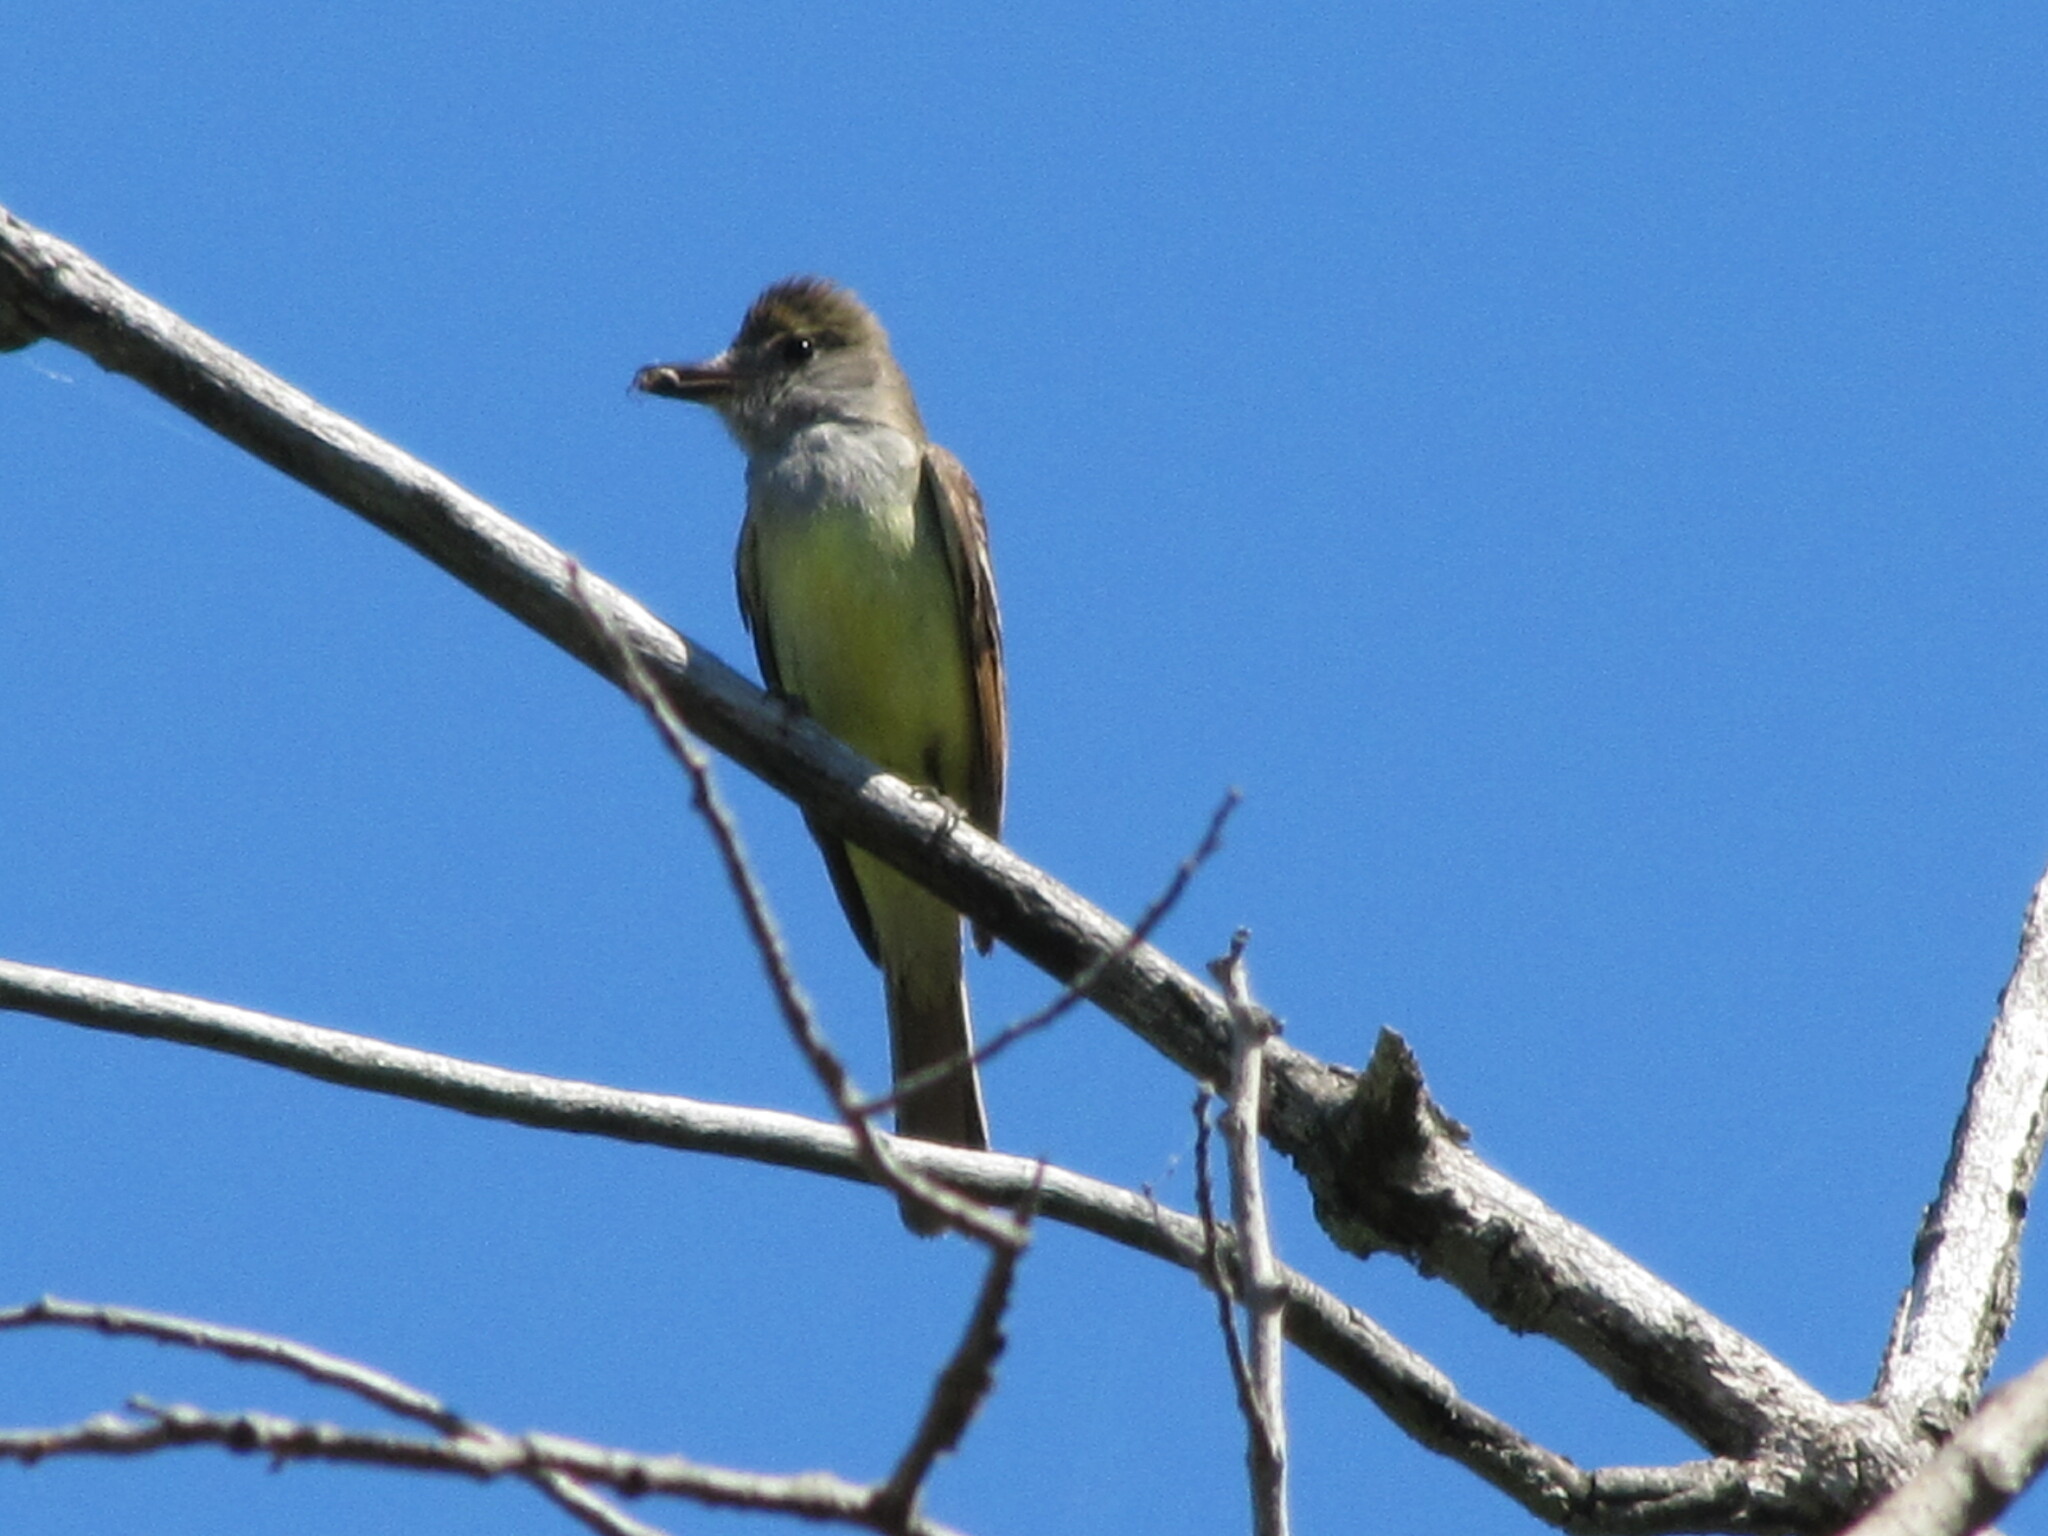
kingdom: Animalia
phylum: Chordata
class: Aves
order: Passeriformes
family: Tyrannidae
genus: Myiarchus
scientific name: Myiarchus crinitus
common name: Great crested flycatcher
